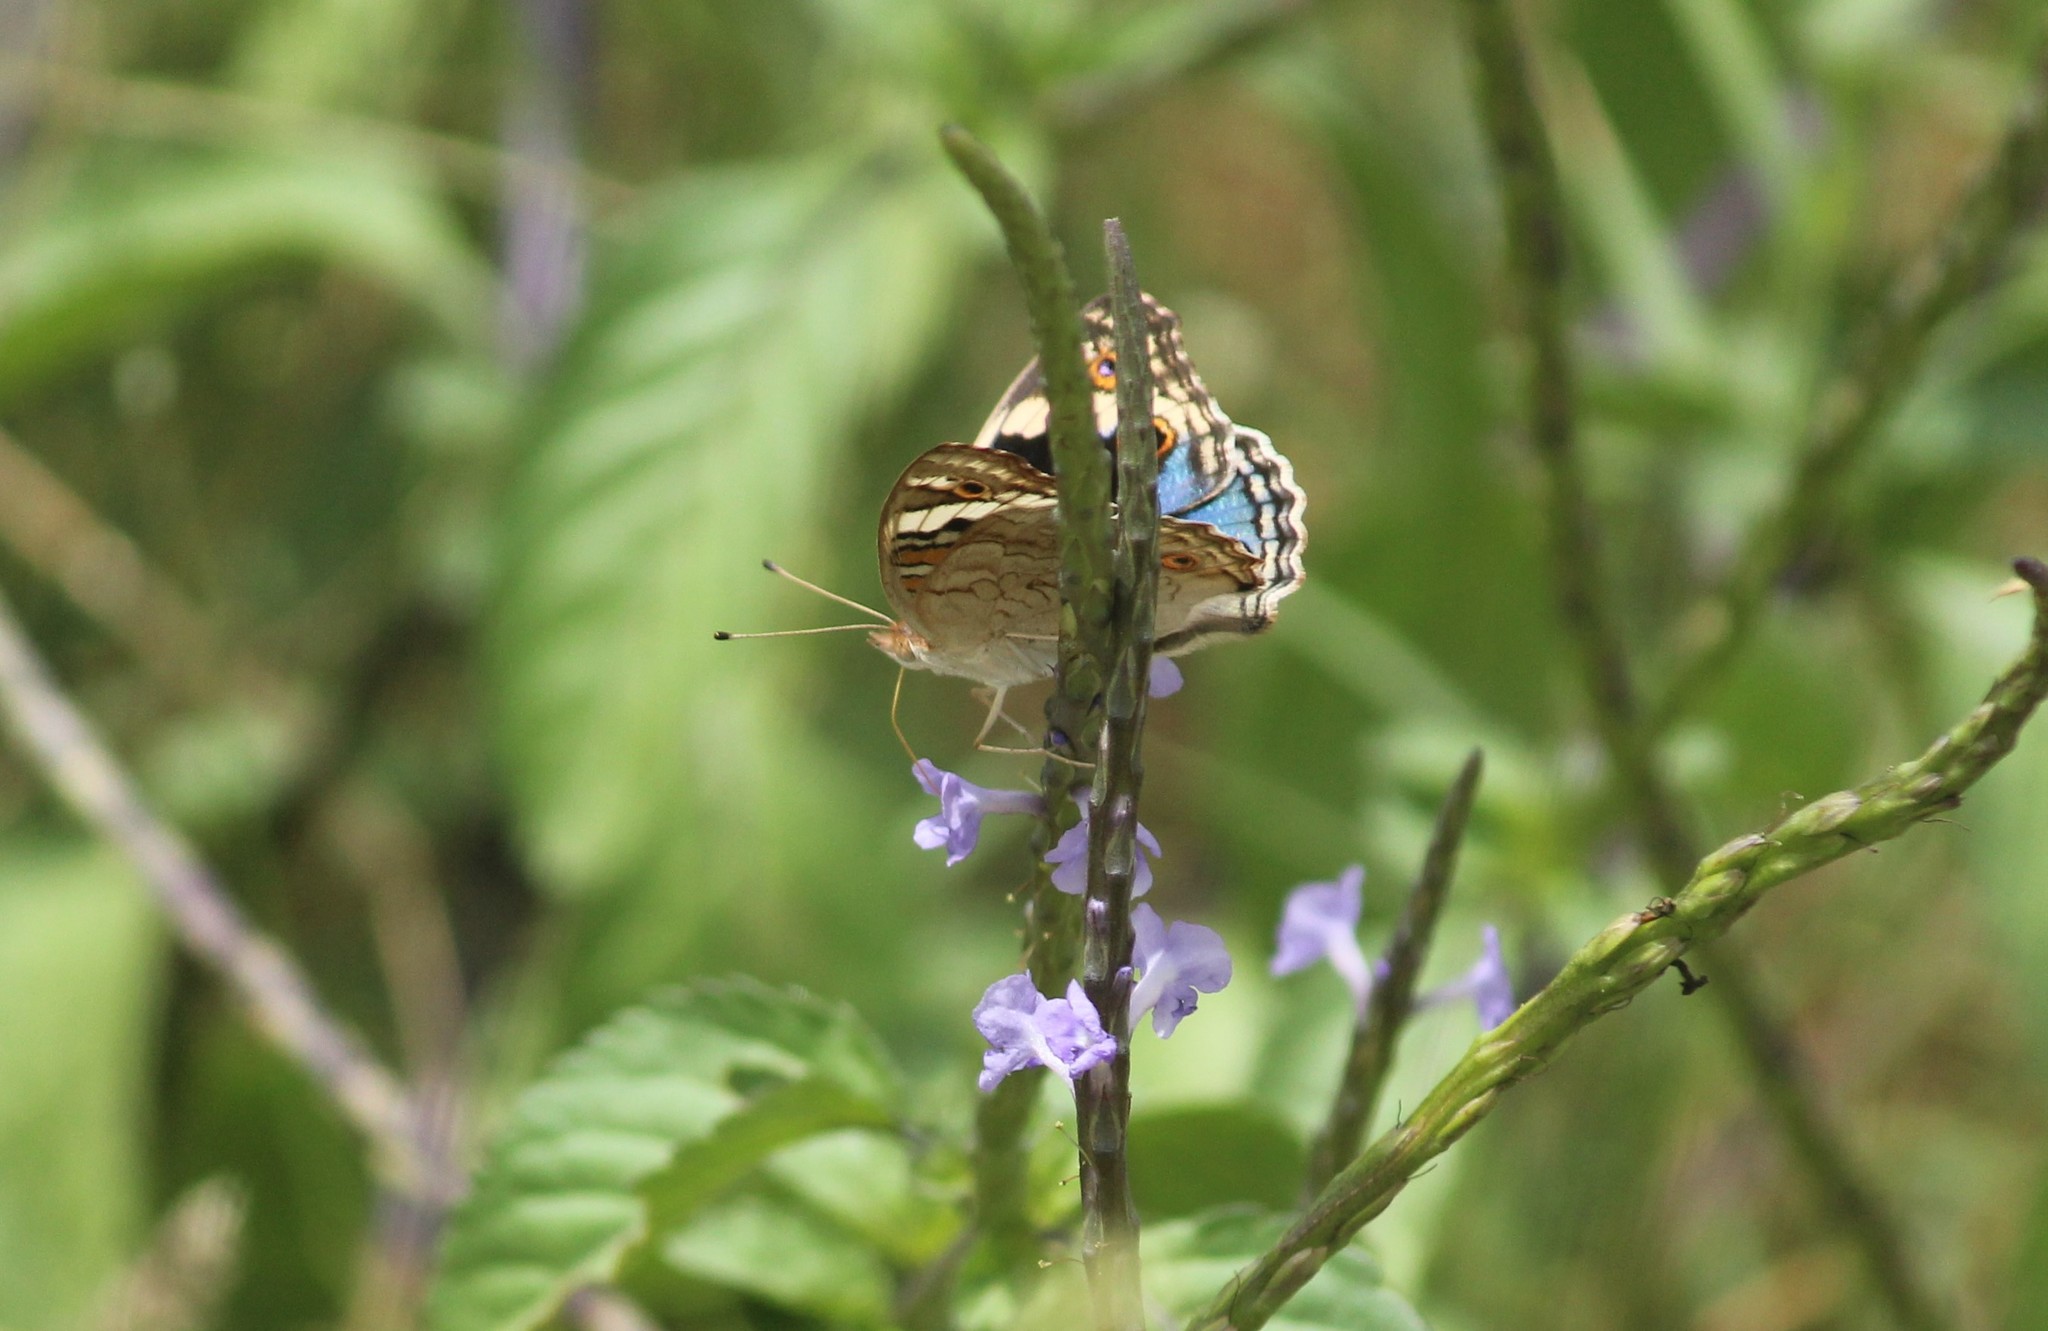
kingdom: Animalia
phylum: Arthropoda
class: Insecta
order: Lepidoptera
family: Nymphalidae
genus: Junonia
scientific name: Junonia orithya
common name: Blue pansy
